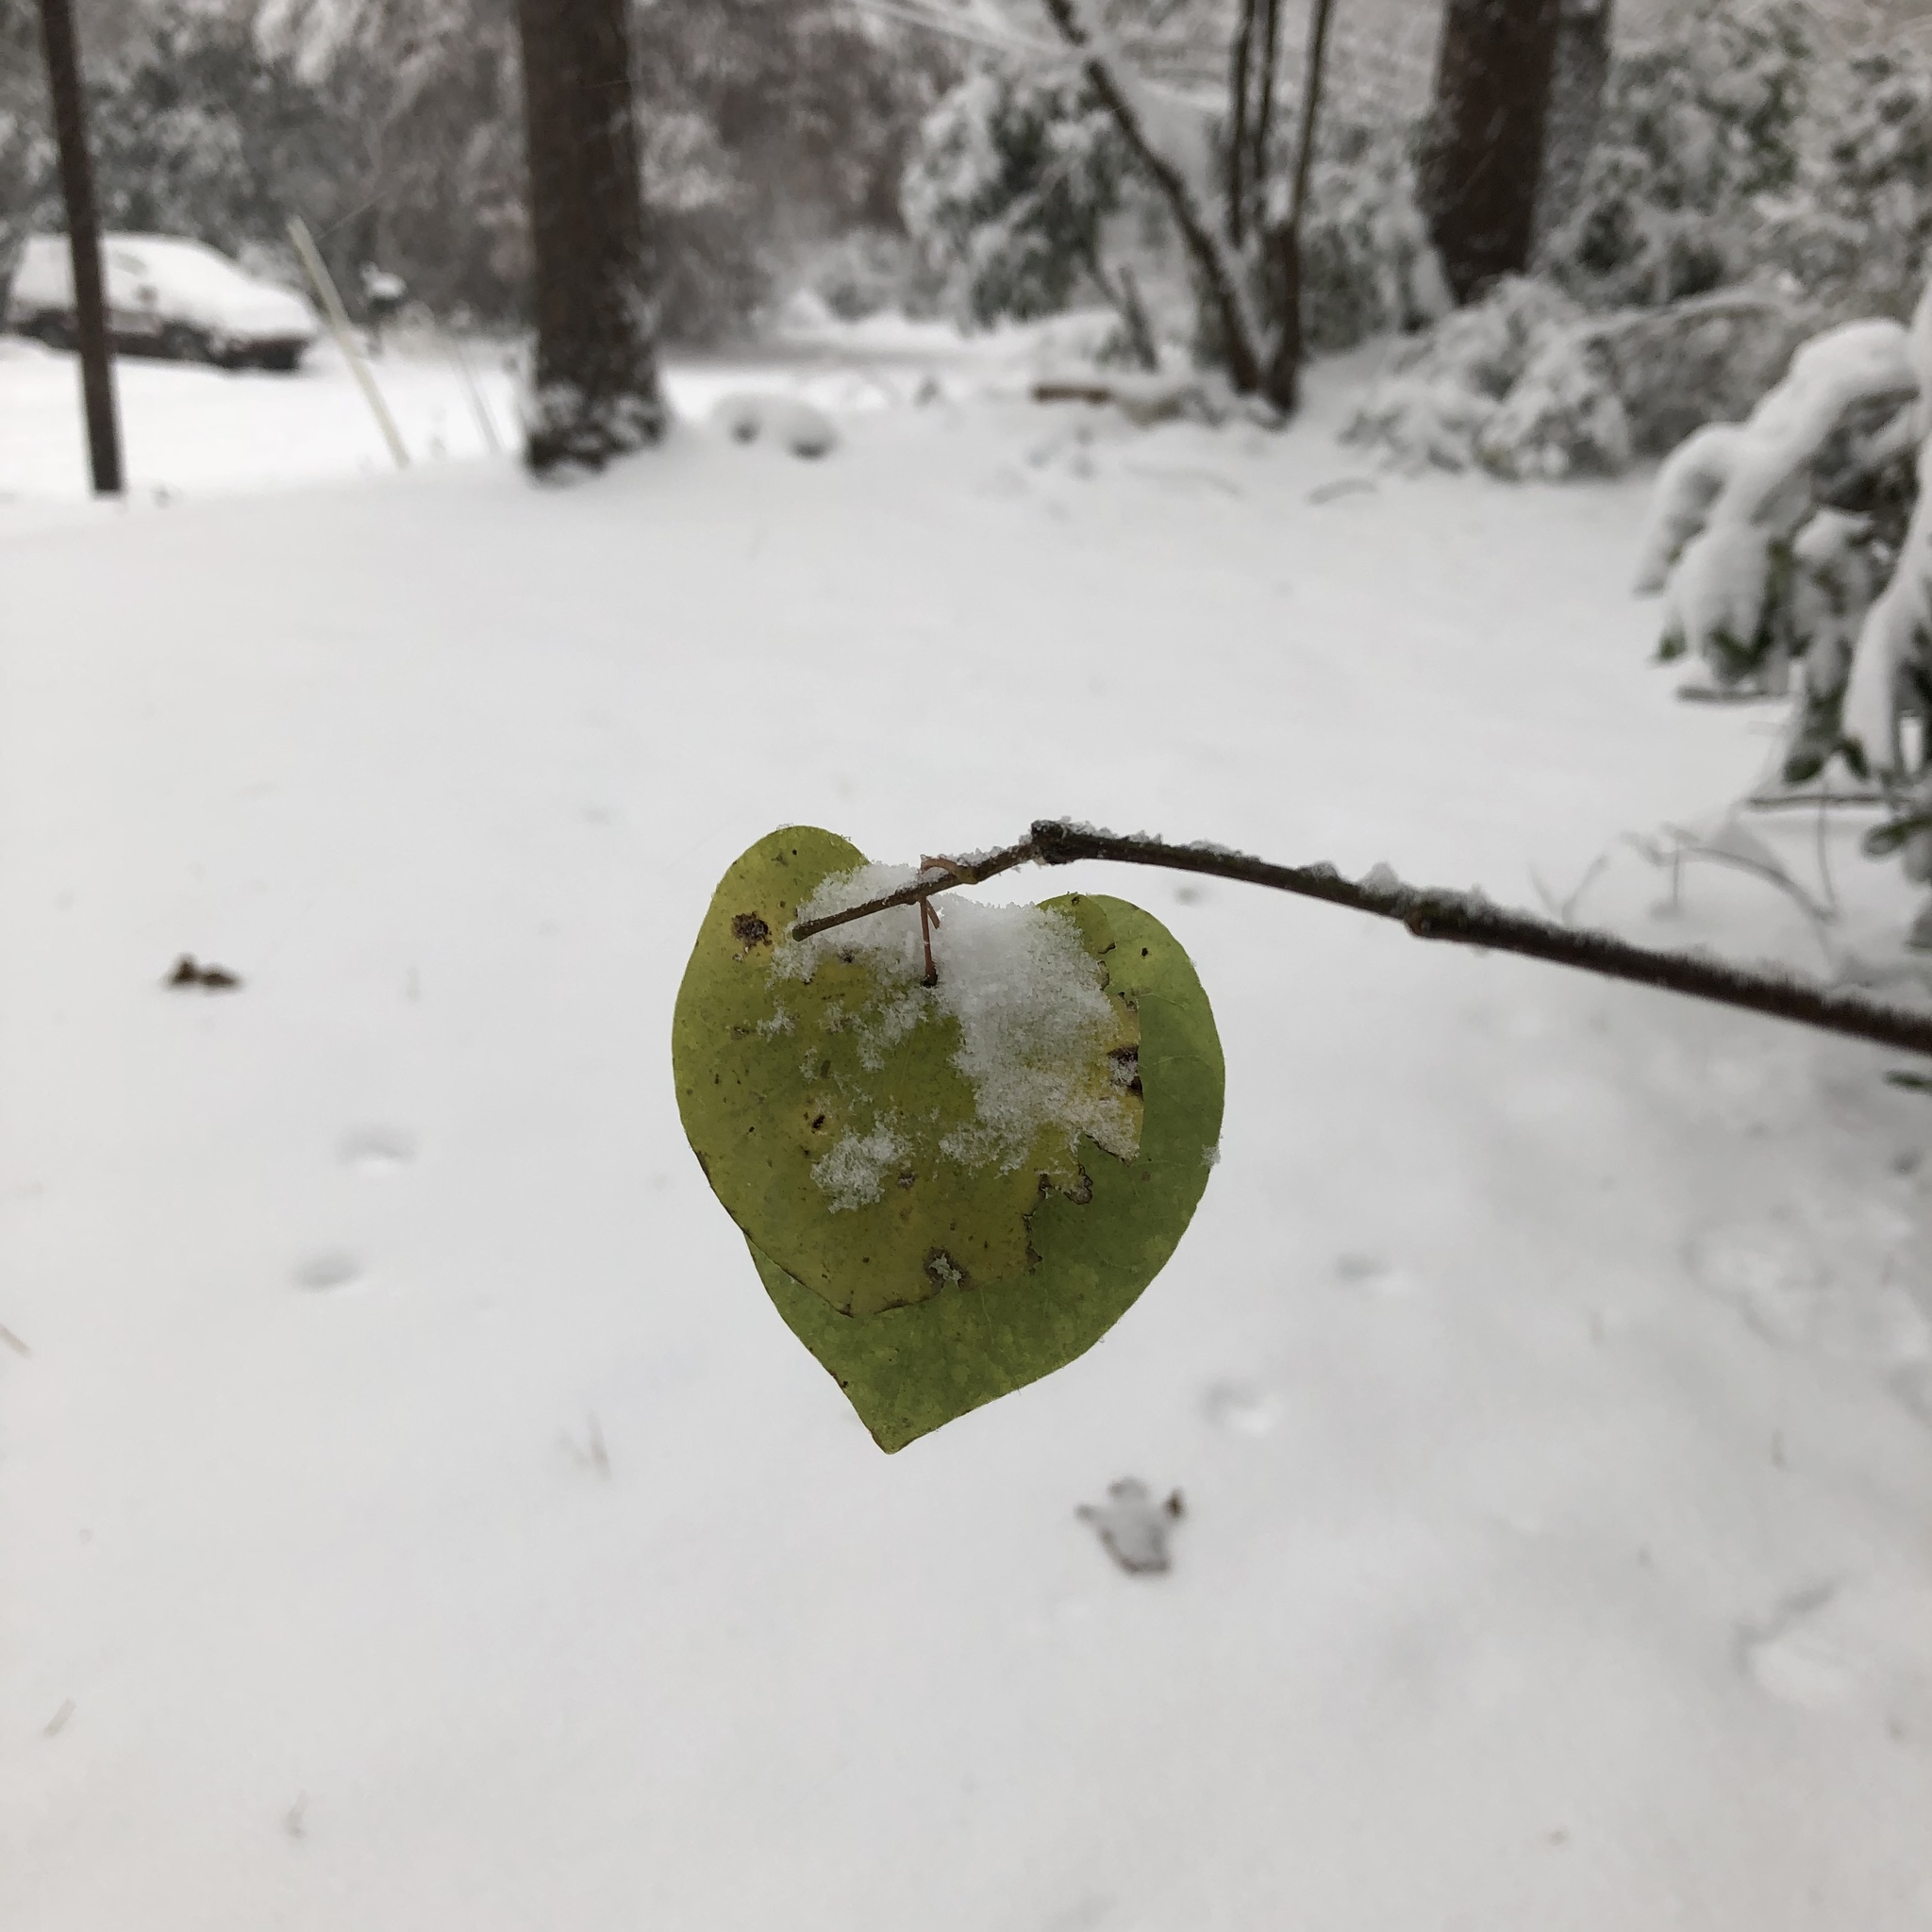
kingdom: Plantae
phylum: Tracheophyta
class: Magnoliopsida
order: Fabales
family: Fabaceae
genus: Cercis
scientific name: Cercis canadensis
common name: Eastern redbud
